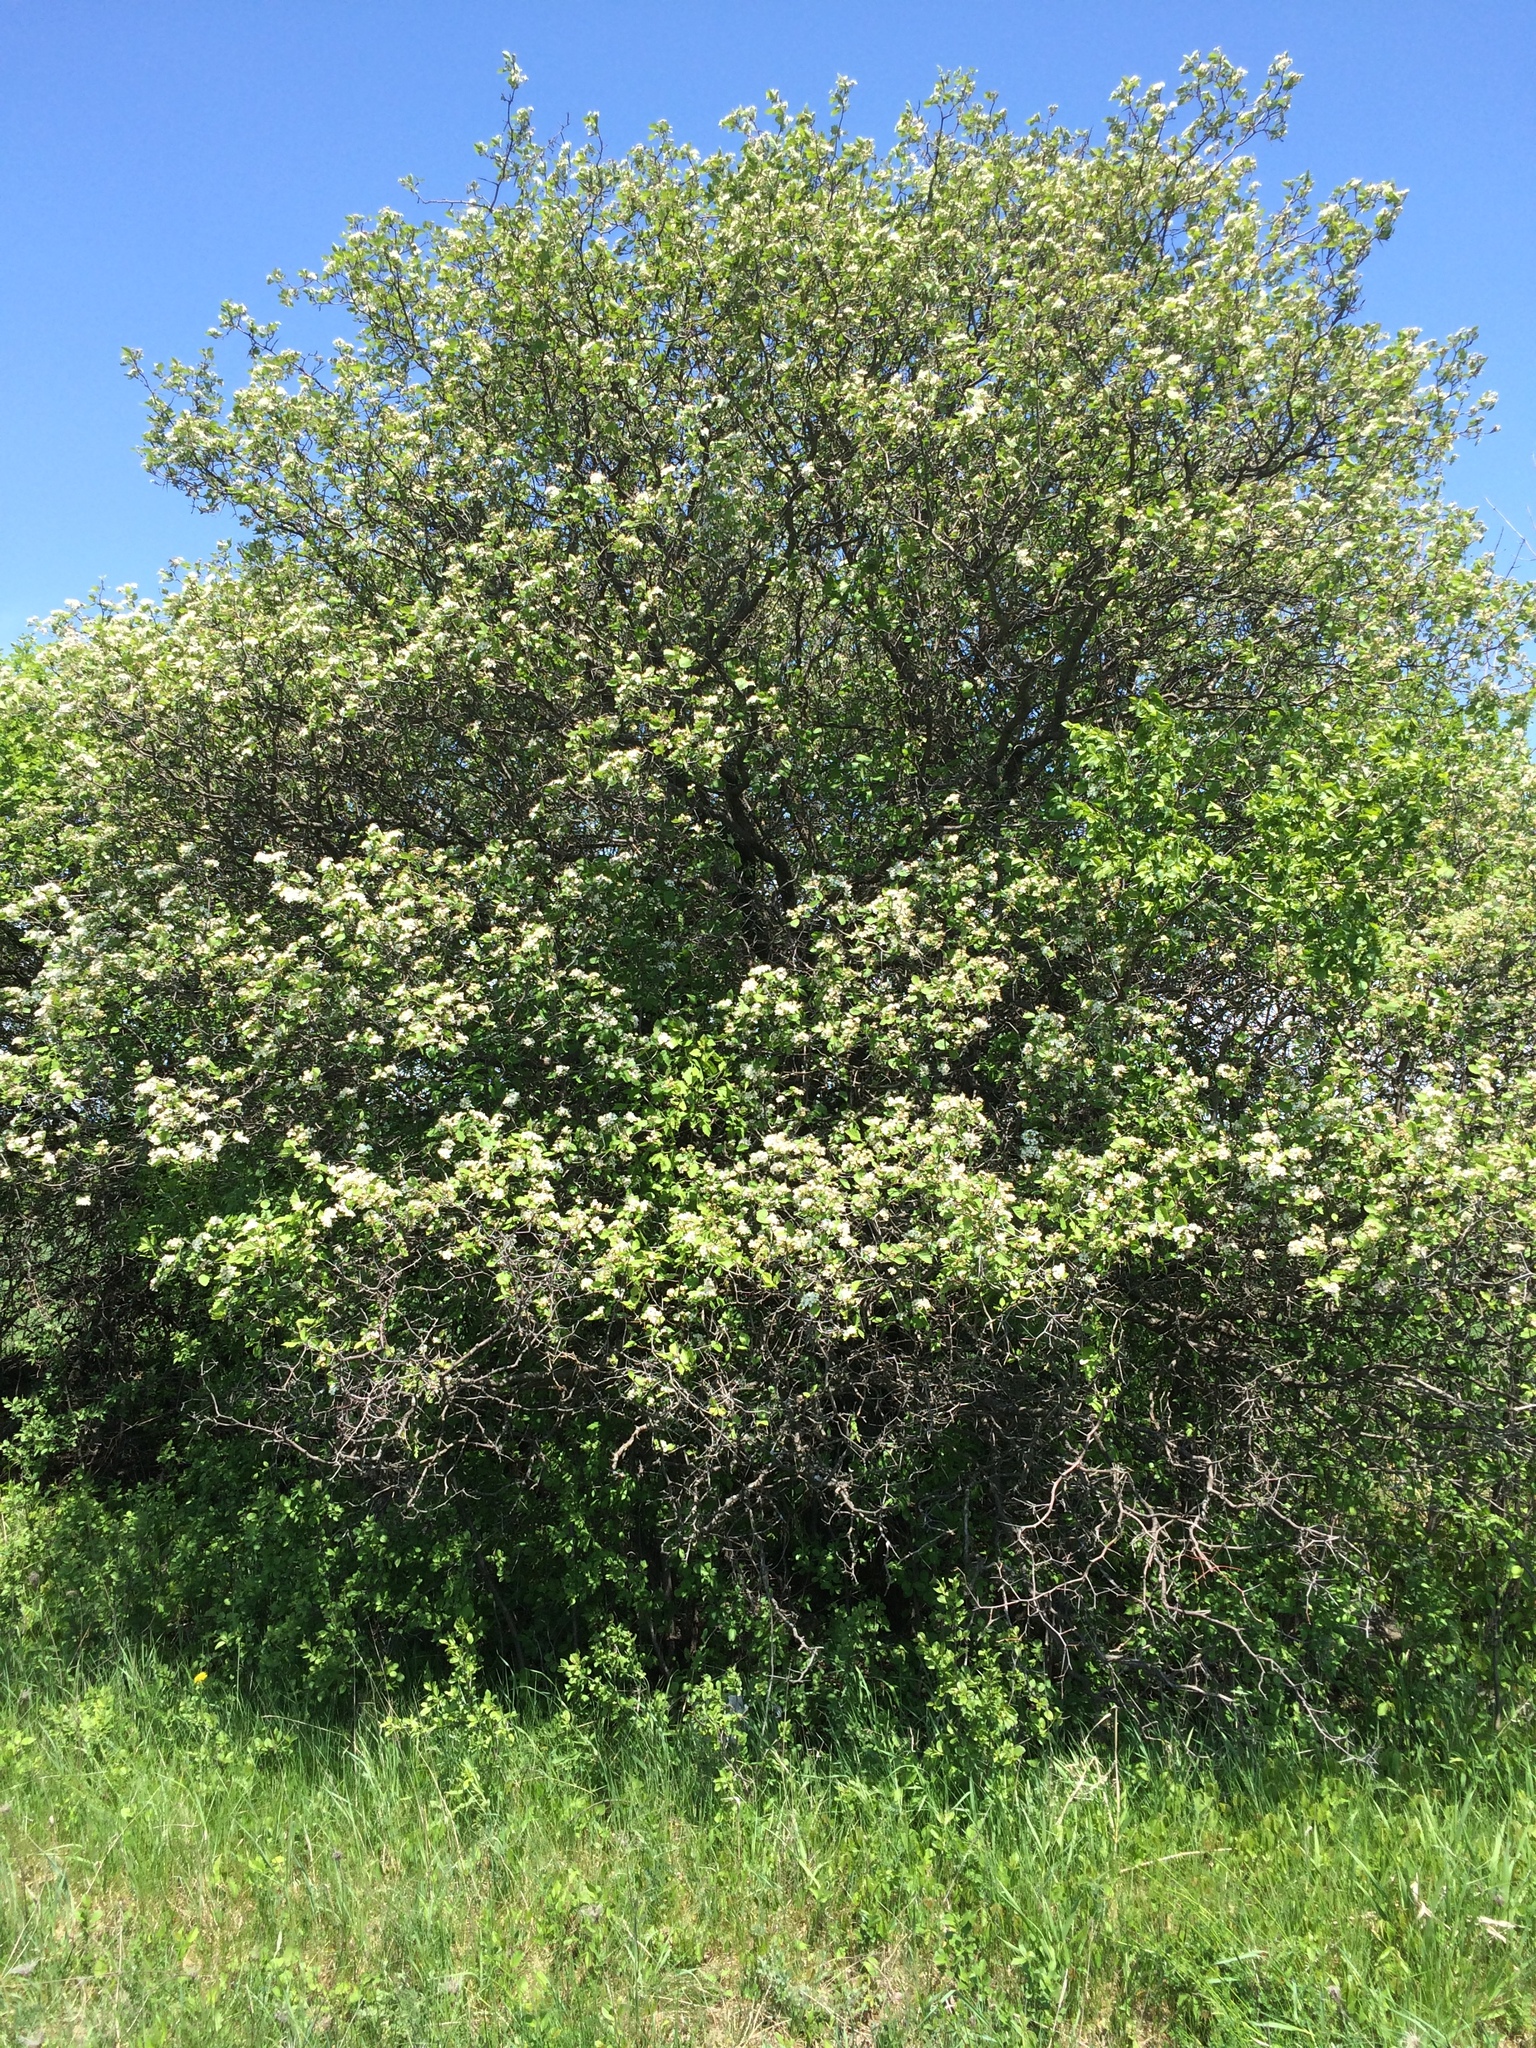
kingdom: Plantae
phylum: Tracheophyta
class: Magnoliopsida
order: Rosales
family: Rosaceae
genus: Crataegus
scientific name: Crataegus submollis
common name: Hairy cockspurthorn
